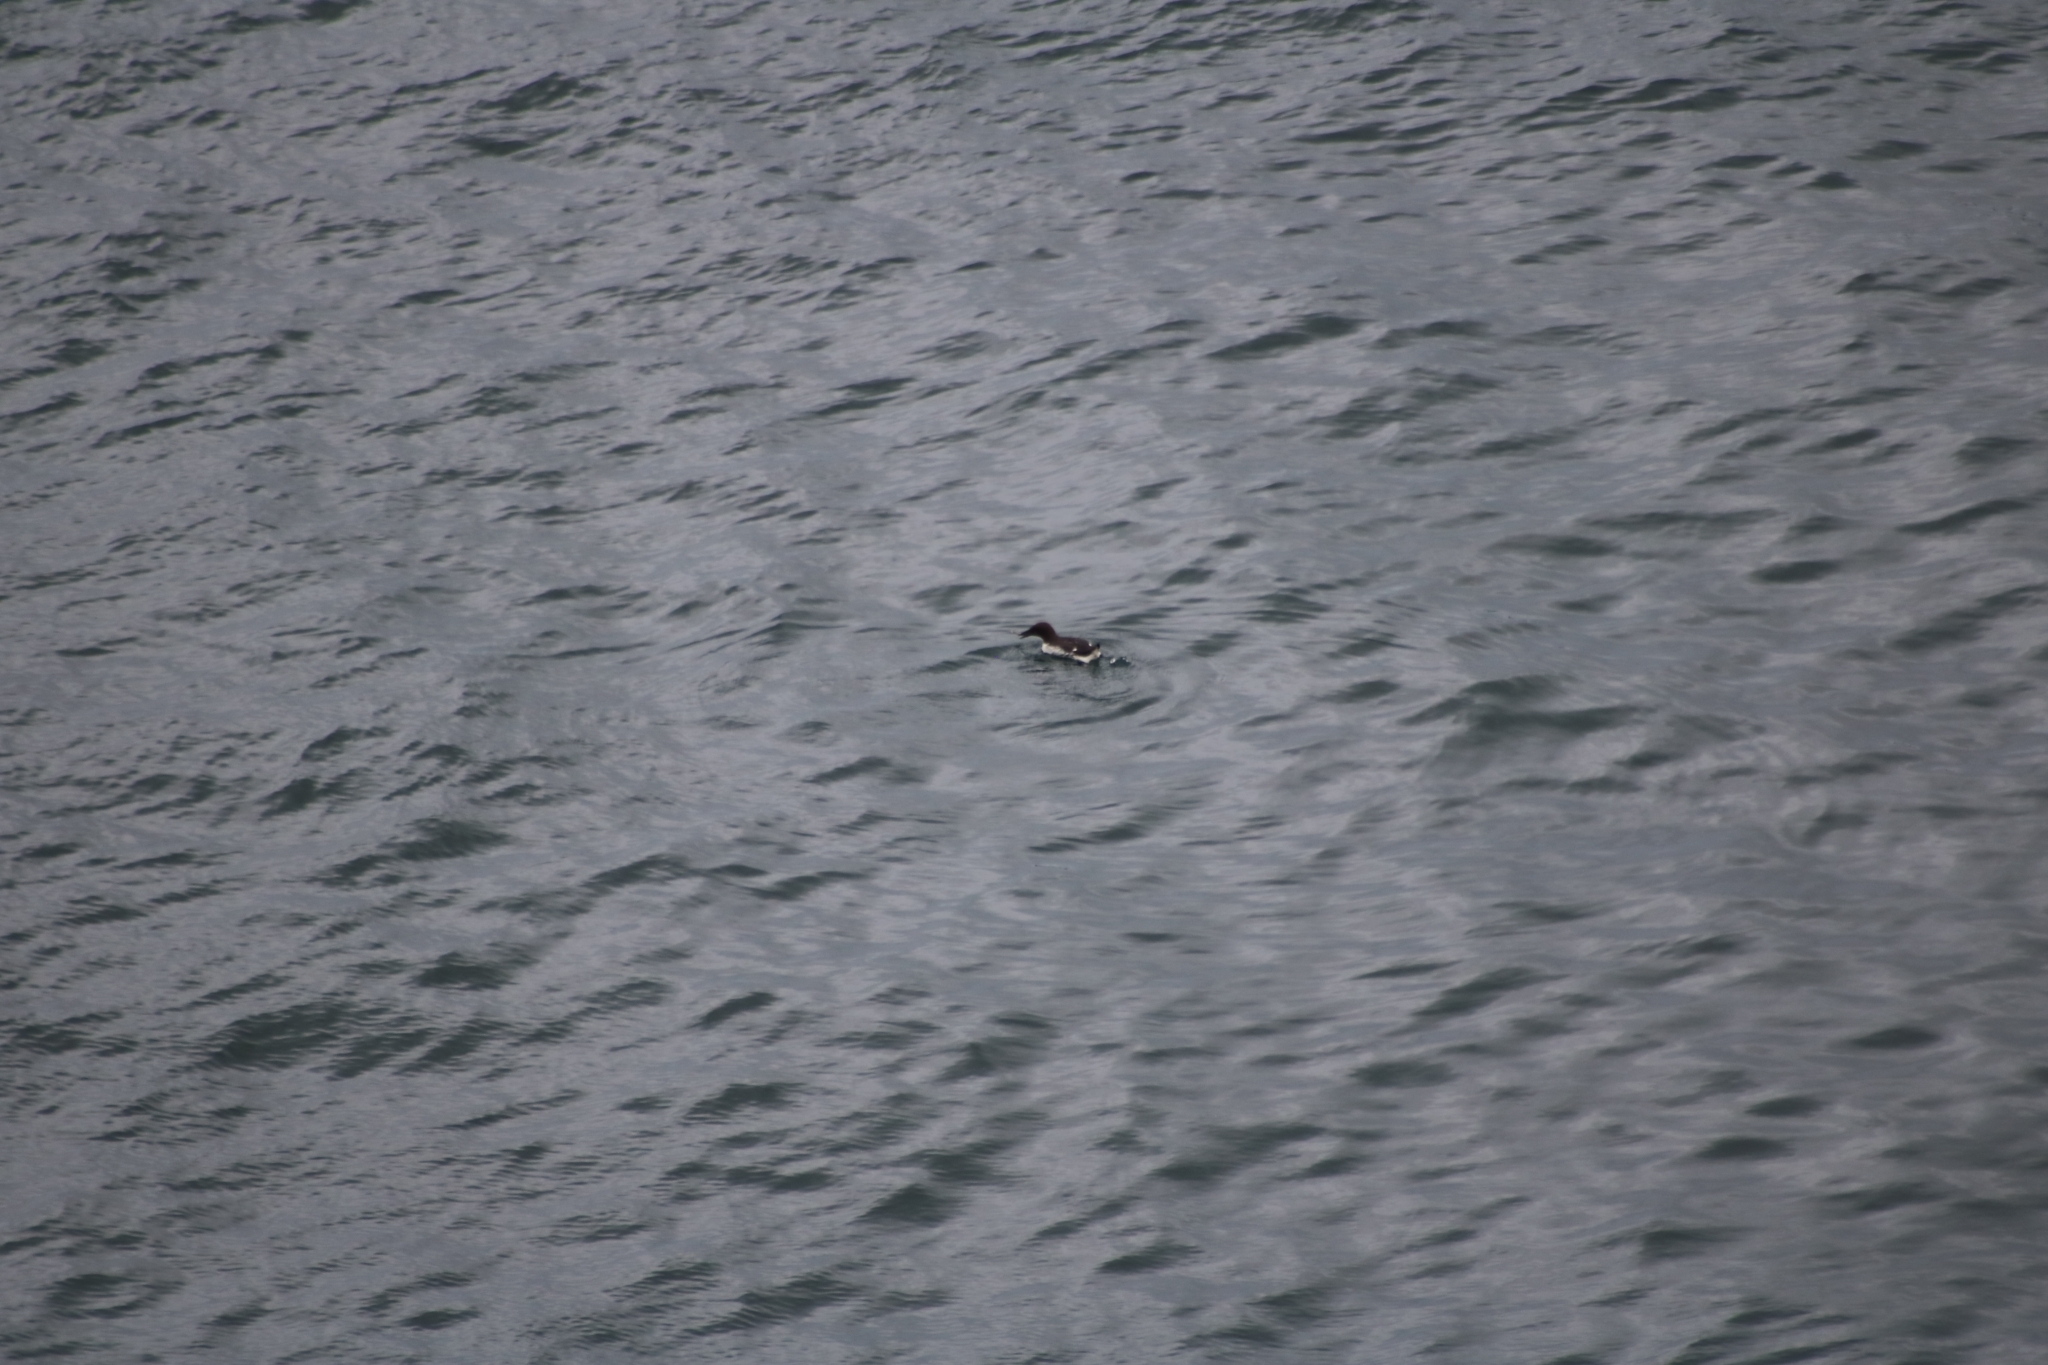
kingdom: Animalia
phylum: Chordata
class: Aves
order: Charadriiformes
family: Alcidae
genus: Uria
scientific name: Uria aalge
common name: Common murre
